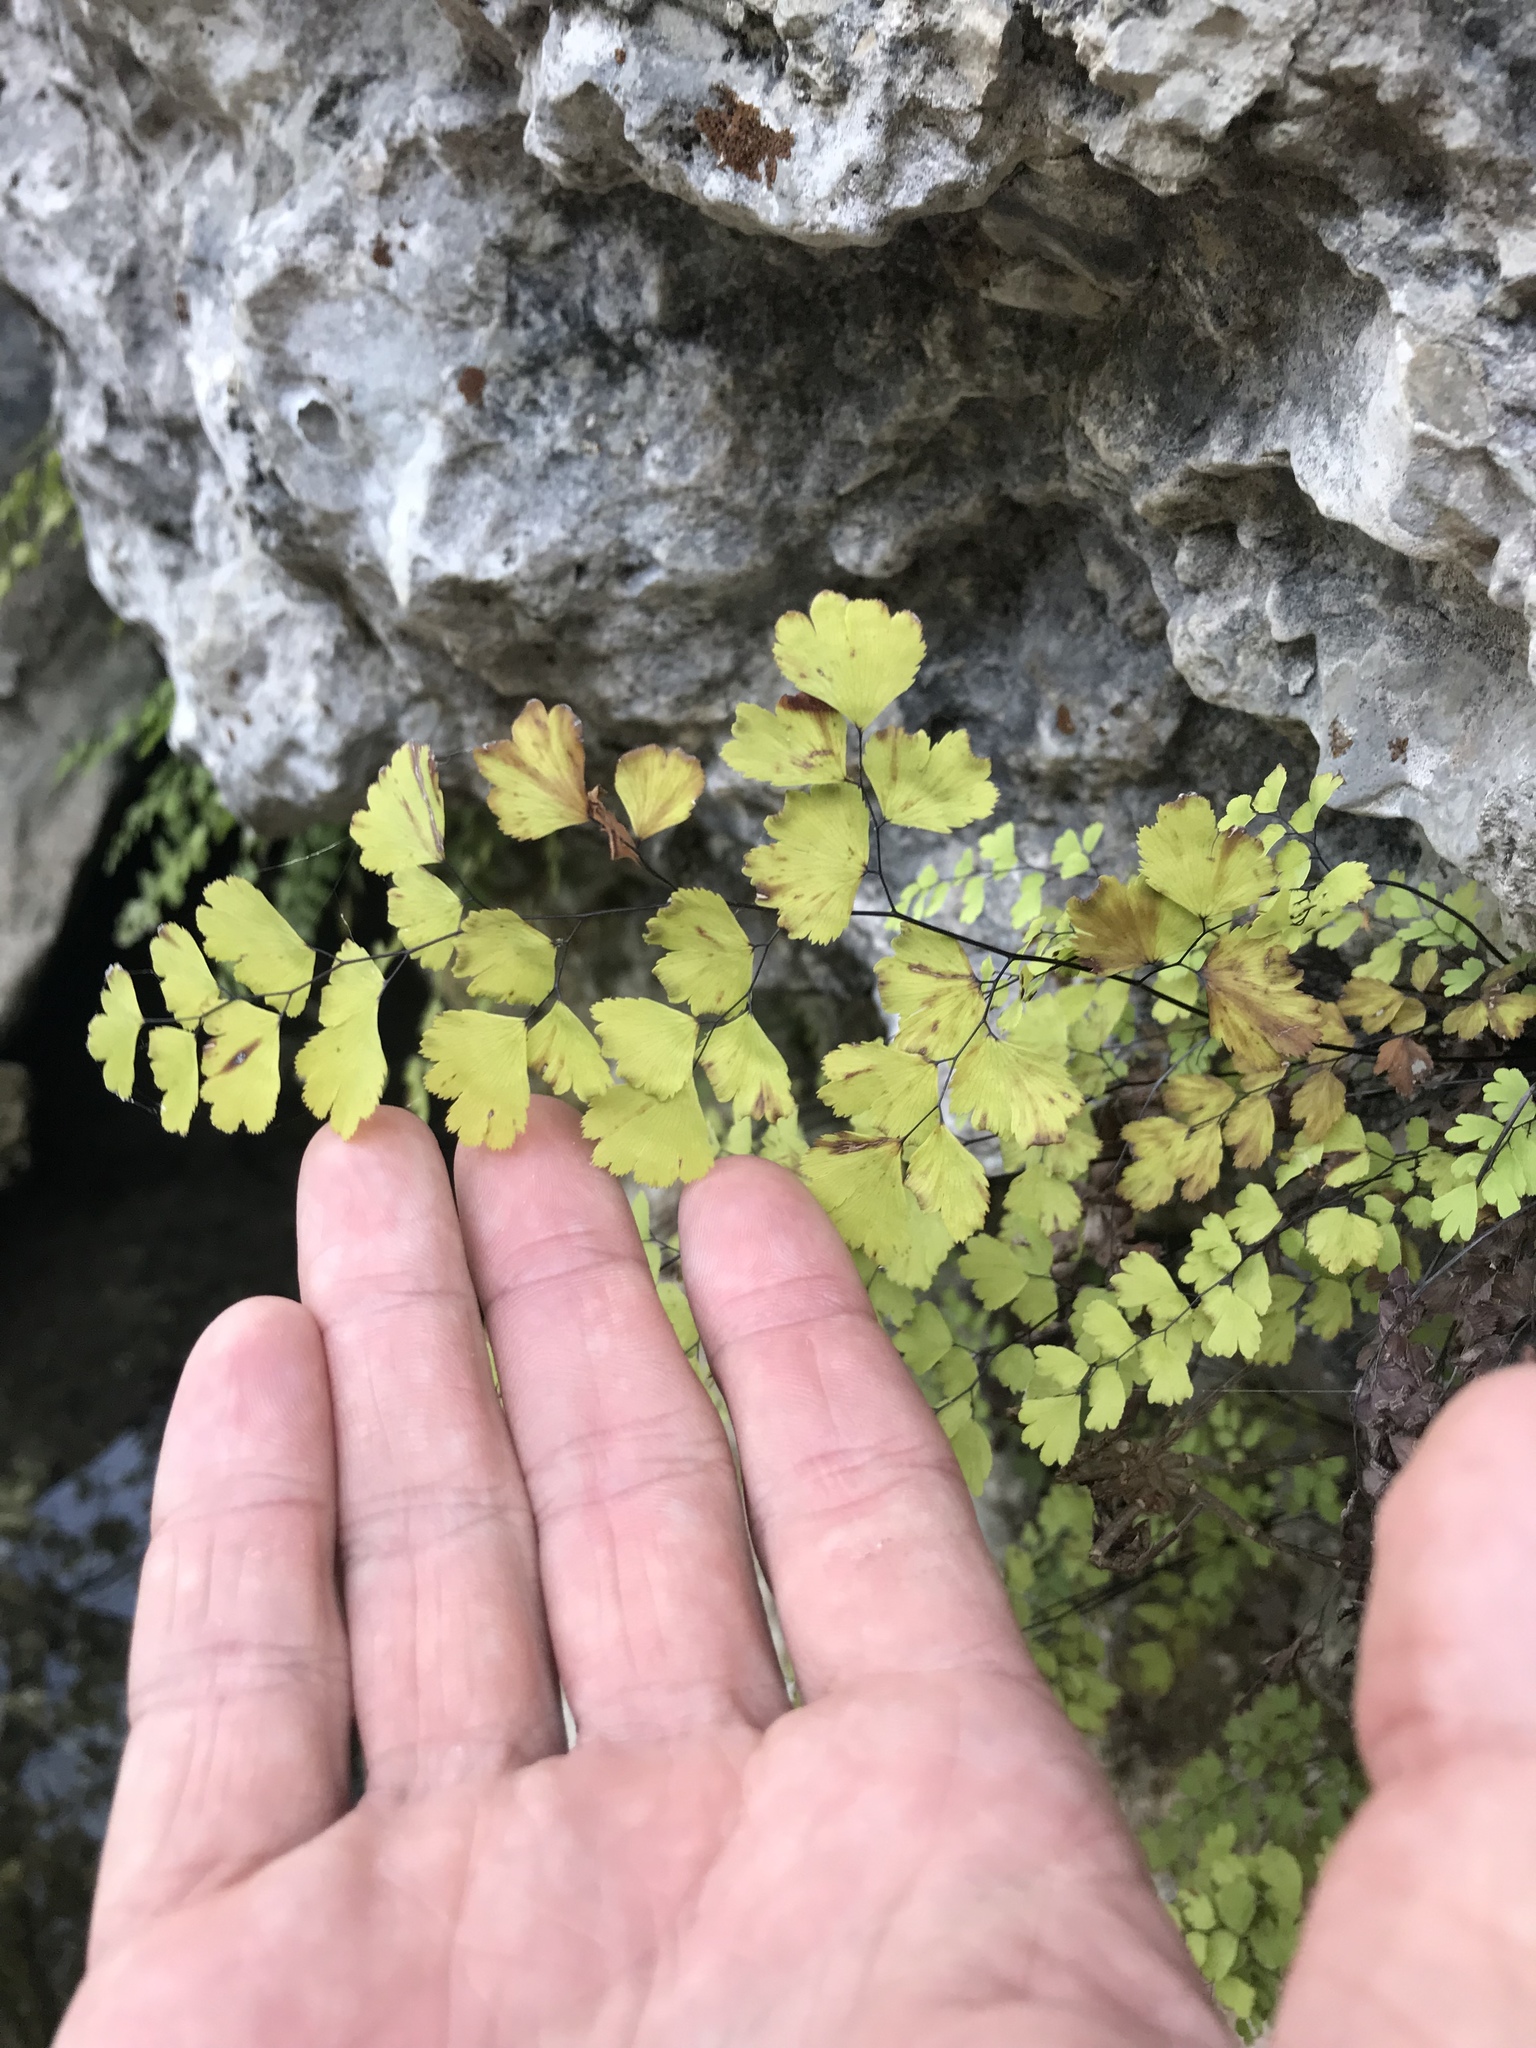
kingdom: Plantae
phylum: Tracheophyta
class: Polypodiopsida
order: Polypodiales
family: Pteridaceae
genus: Adiantum
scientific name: Adiantum capillus-veneris
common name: Maidenhair fern
